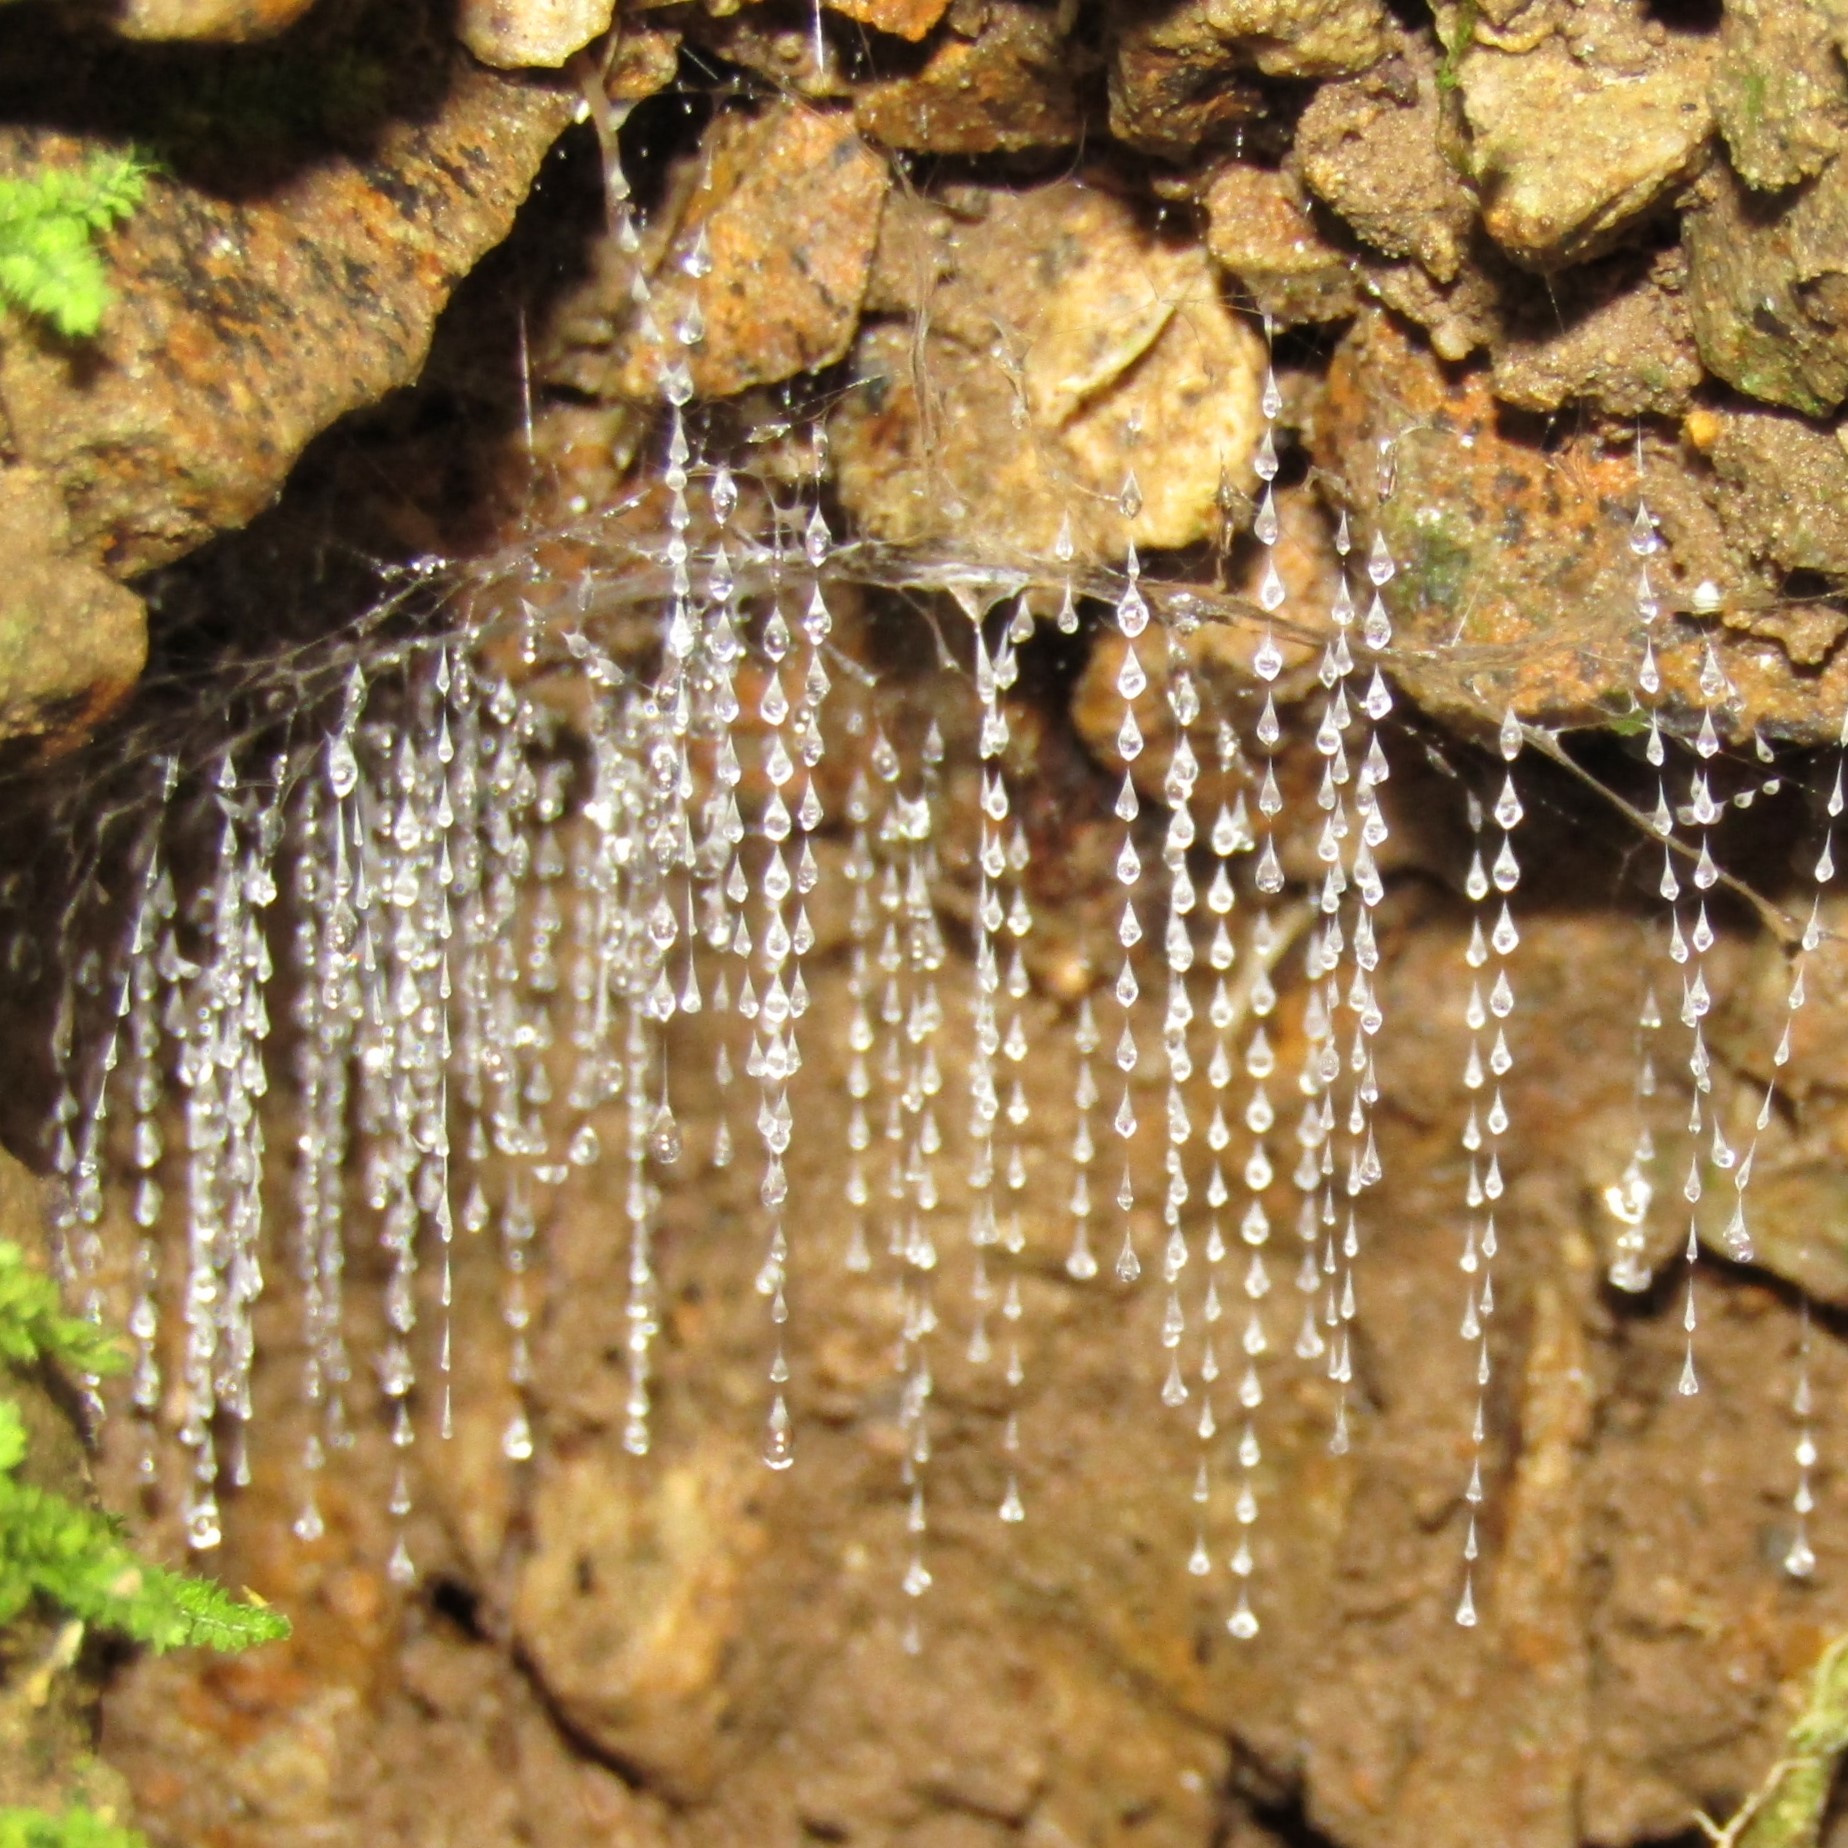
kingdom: Animalia
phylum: Arthropoda
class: Insecta
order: Diptera
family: Keroplatidae
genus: Arachnocampa
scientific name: Arachnocampa luminosa
